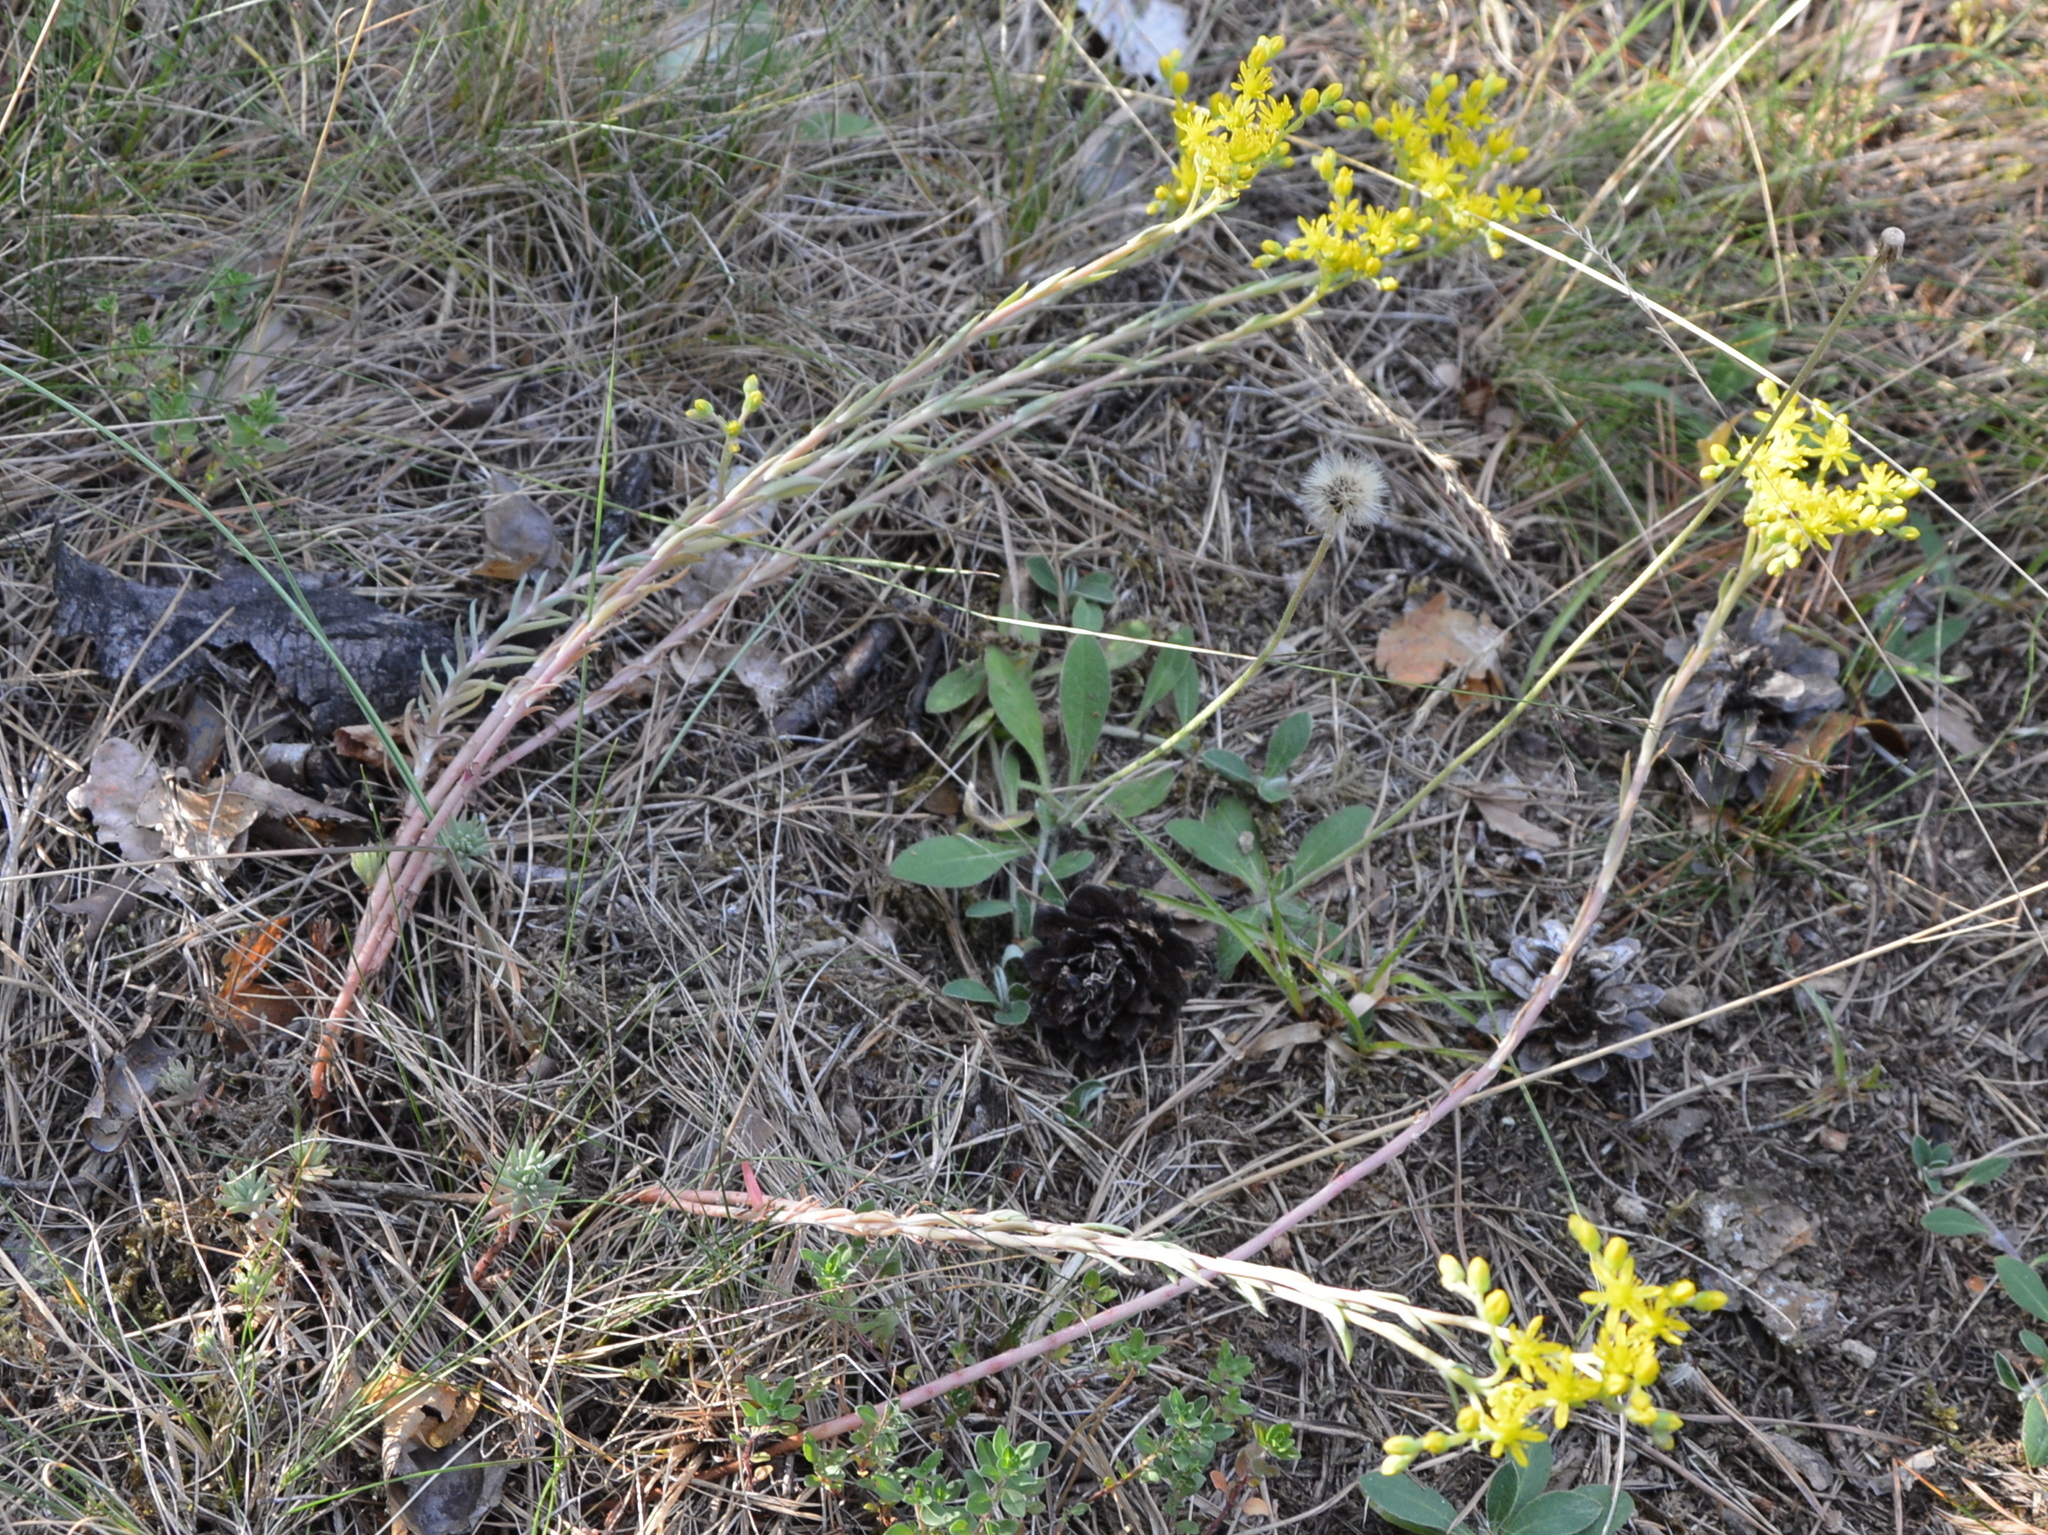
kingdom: Plantae
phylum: Tracheophyta
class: Magnoliopsida
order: Saxifragales
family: Crassulaceae
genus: Petrosedum
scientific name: Petrosedum rupestre
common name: Jenny's stonecrop
